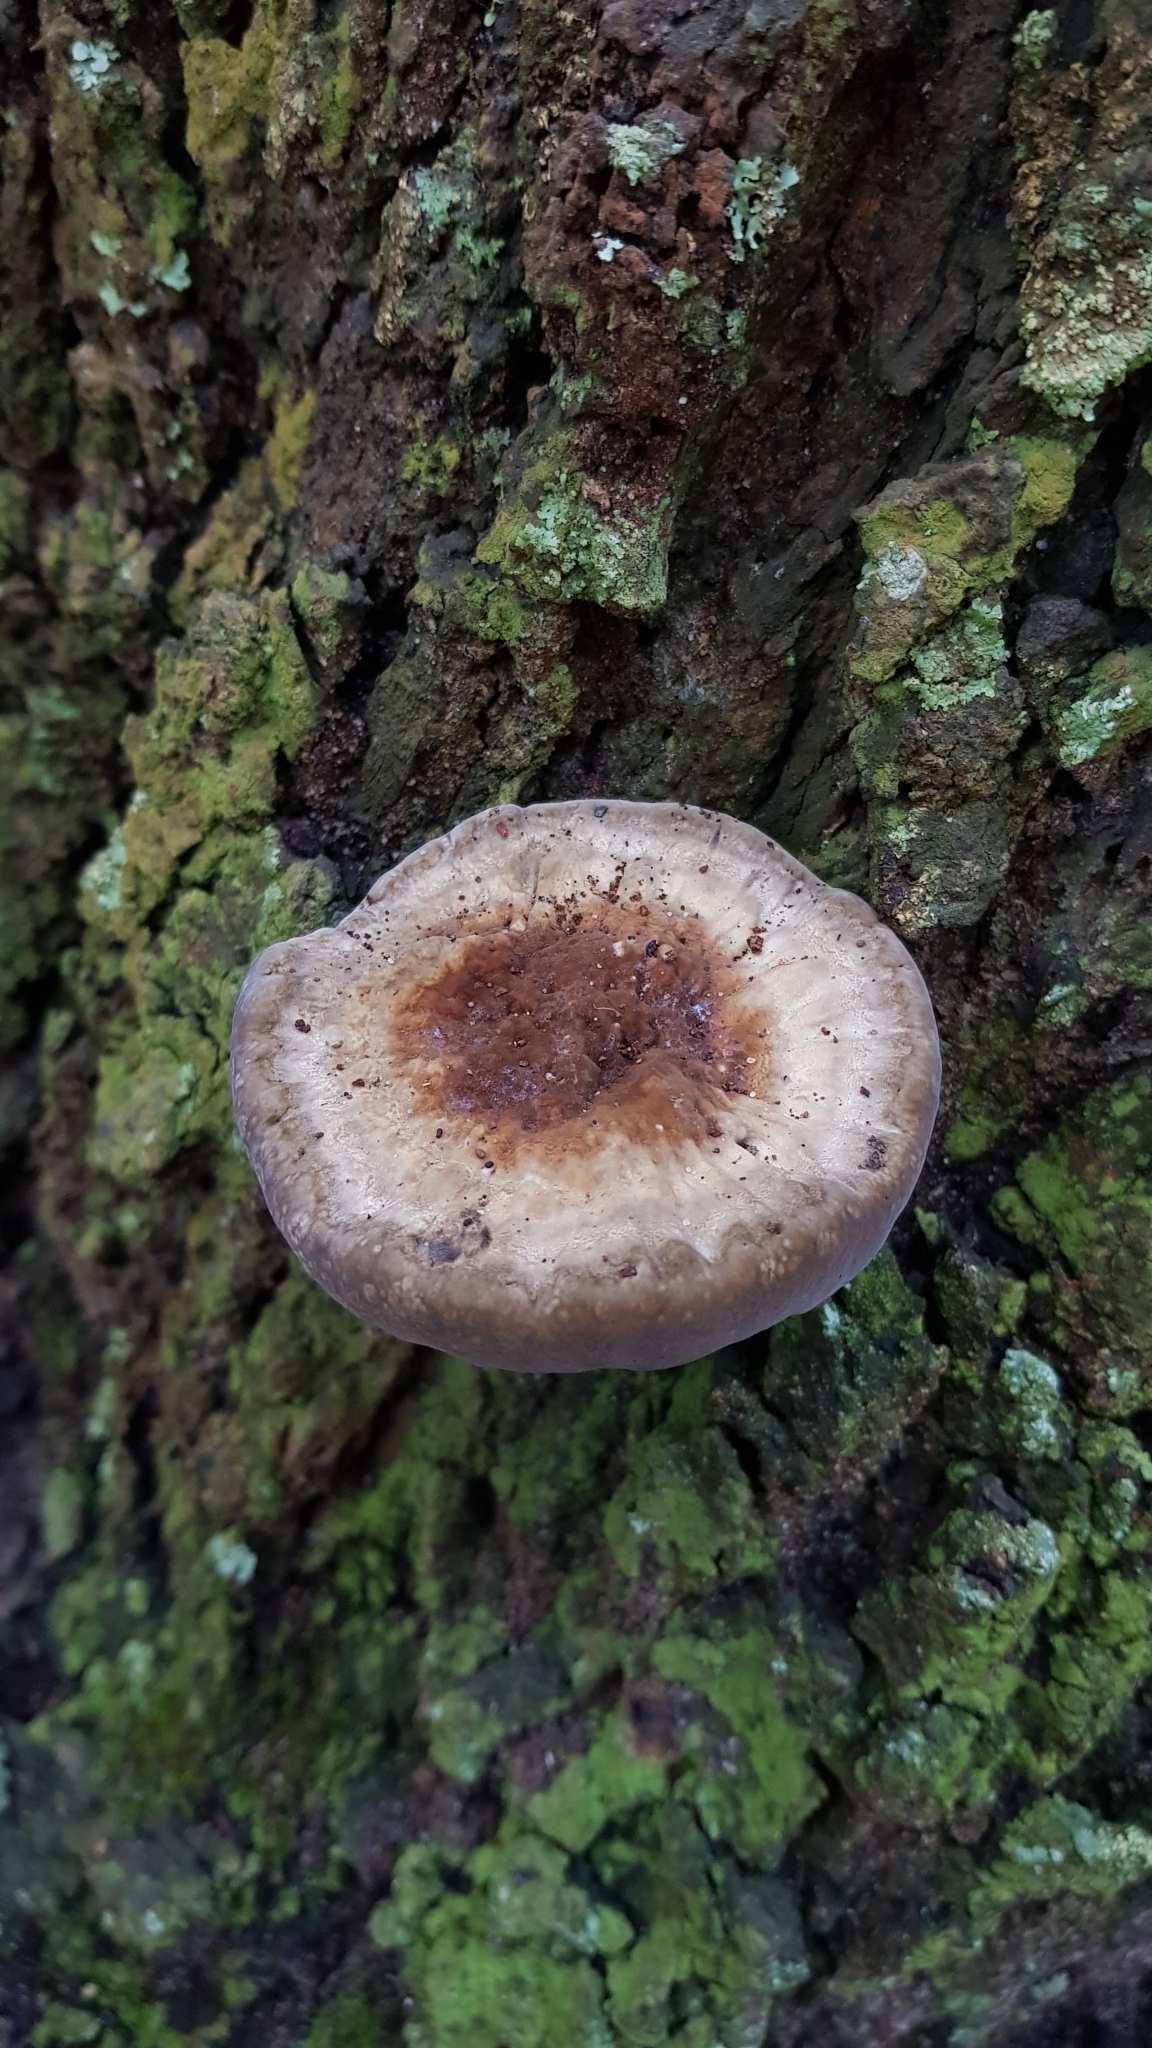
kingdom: Fungi
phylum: Basidiomycota
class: Agaricomycetes
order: Polyporales
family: Ganodermataceae
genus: Sanguinoderma
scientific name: Sanguinoderma rude
